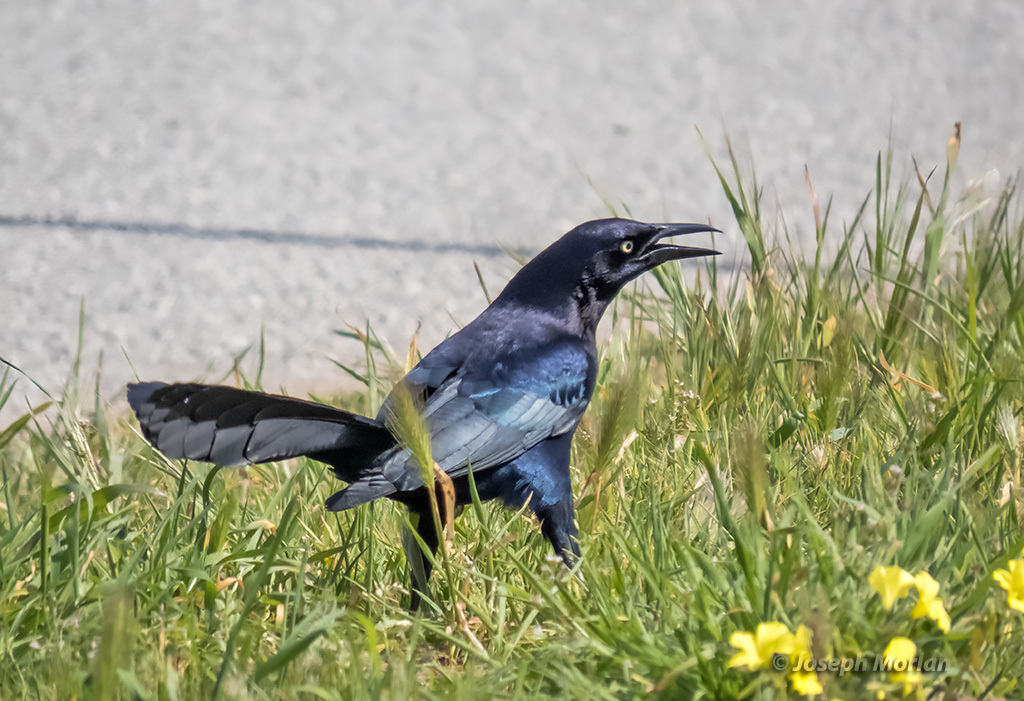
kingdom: Animalia
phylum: Chordata
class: Aves
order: Passeriformes
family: Icteridae
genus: Quiscalus
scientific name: Quiscalus mexicanus
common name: Great-tailed grackle
